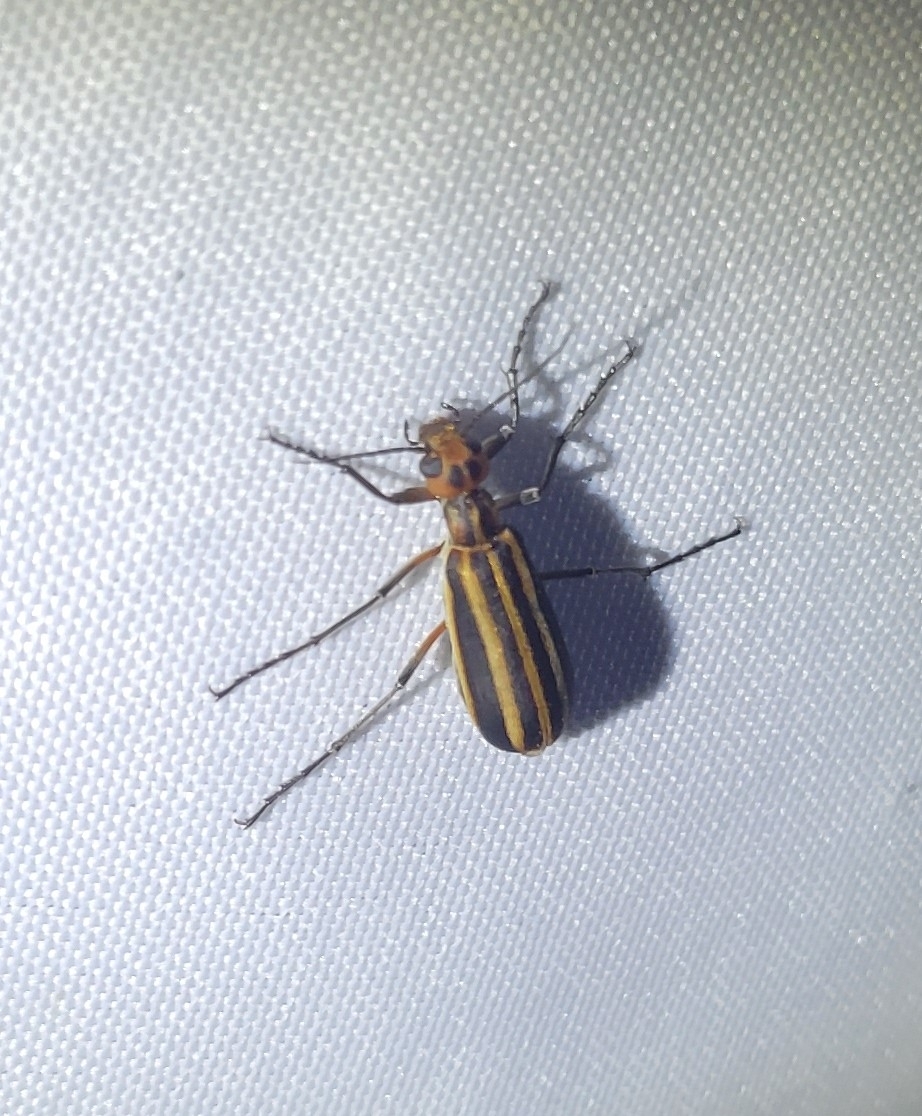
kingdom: Animalia
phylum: Arthropoda
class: Insecta
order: Coleoptera
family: Meloidae
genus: Epicauta
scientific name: Epicauta vittata
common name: Old-fashioned potato beetle
